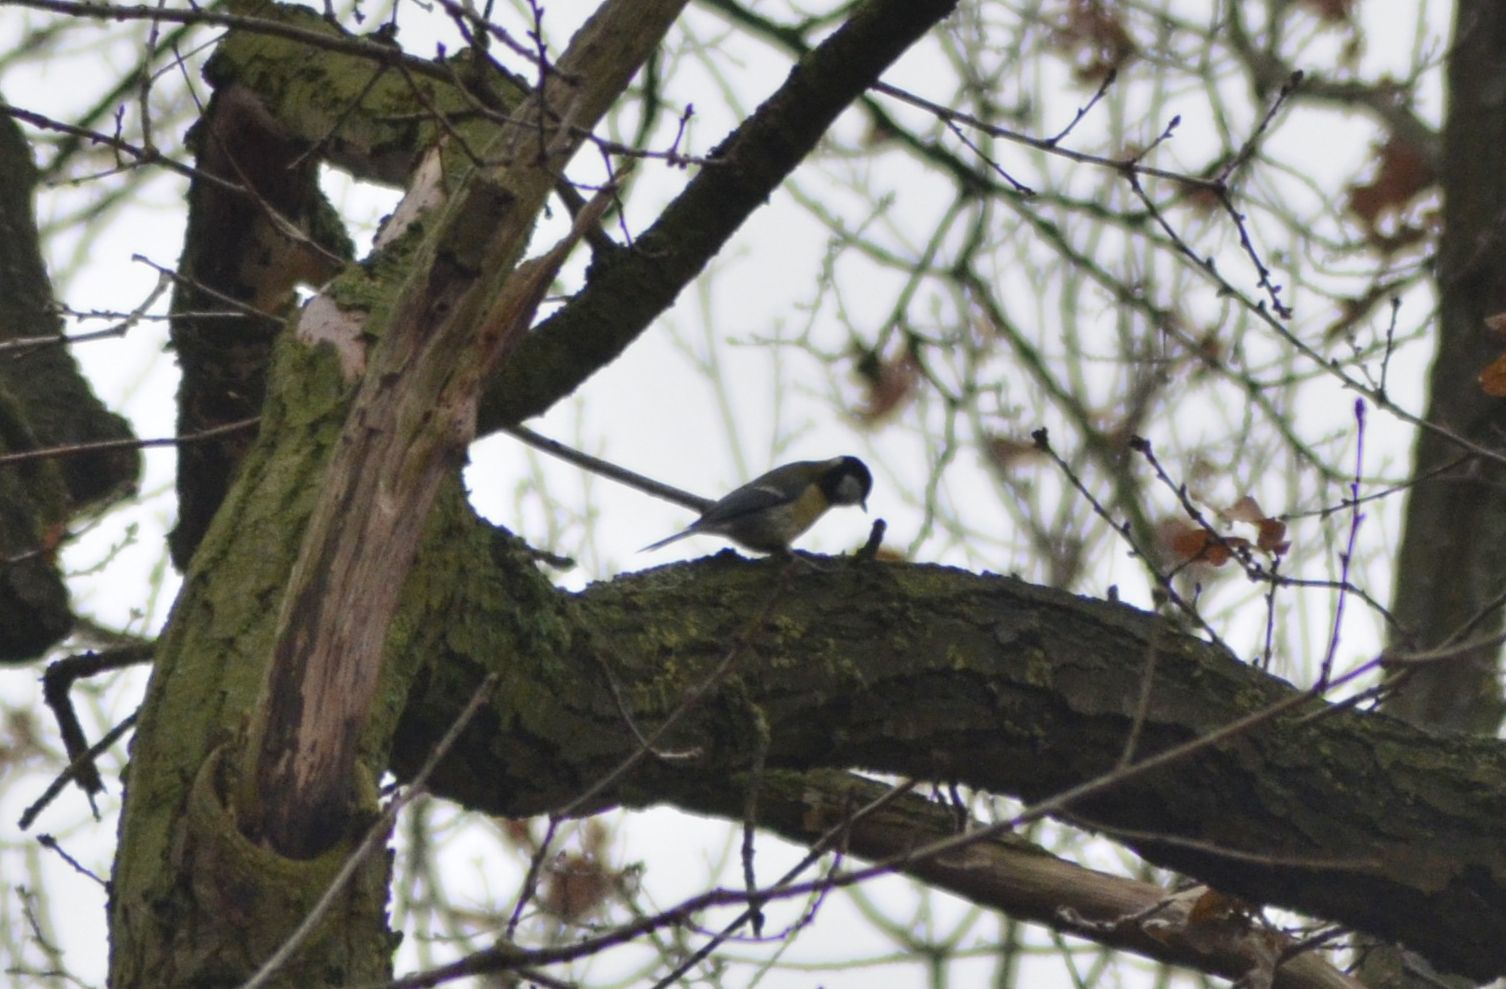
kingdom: Animalia
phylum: Chordata
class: Aves
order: Passeriformes
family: Paridae
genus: Parus
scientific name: Parus major
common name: Great tit
